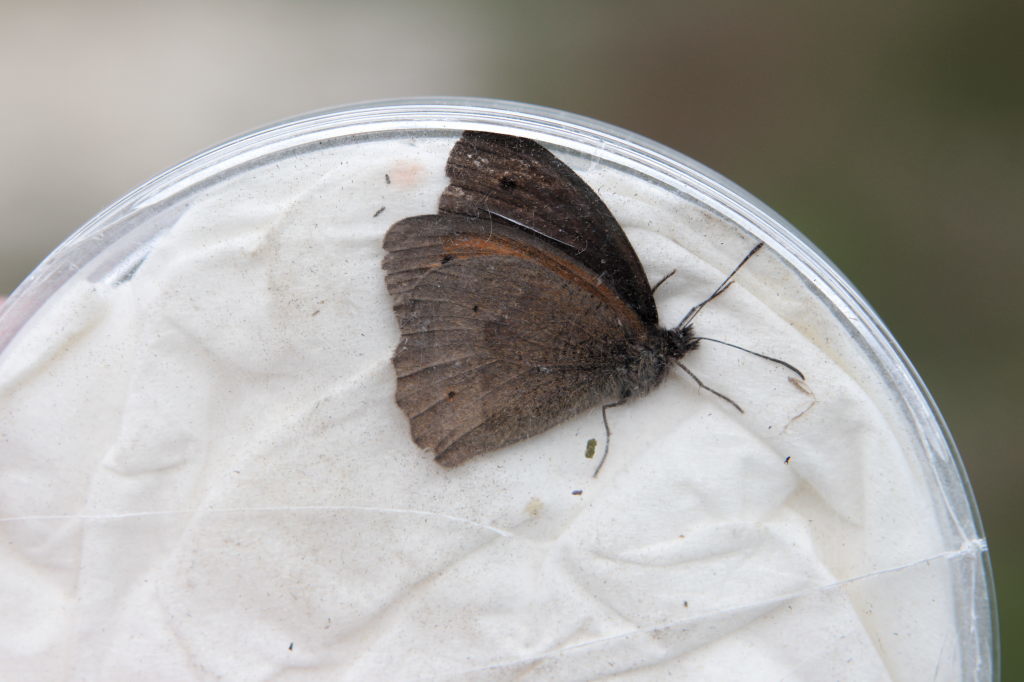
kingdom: Animalia
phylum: Arthropoda
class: Insecta
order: Lepidoptera
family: Nymphalidae
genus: Maniola
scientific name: Maniola jurtina
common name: Meadow brown
